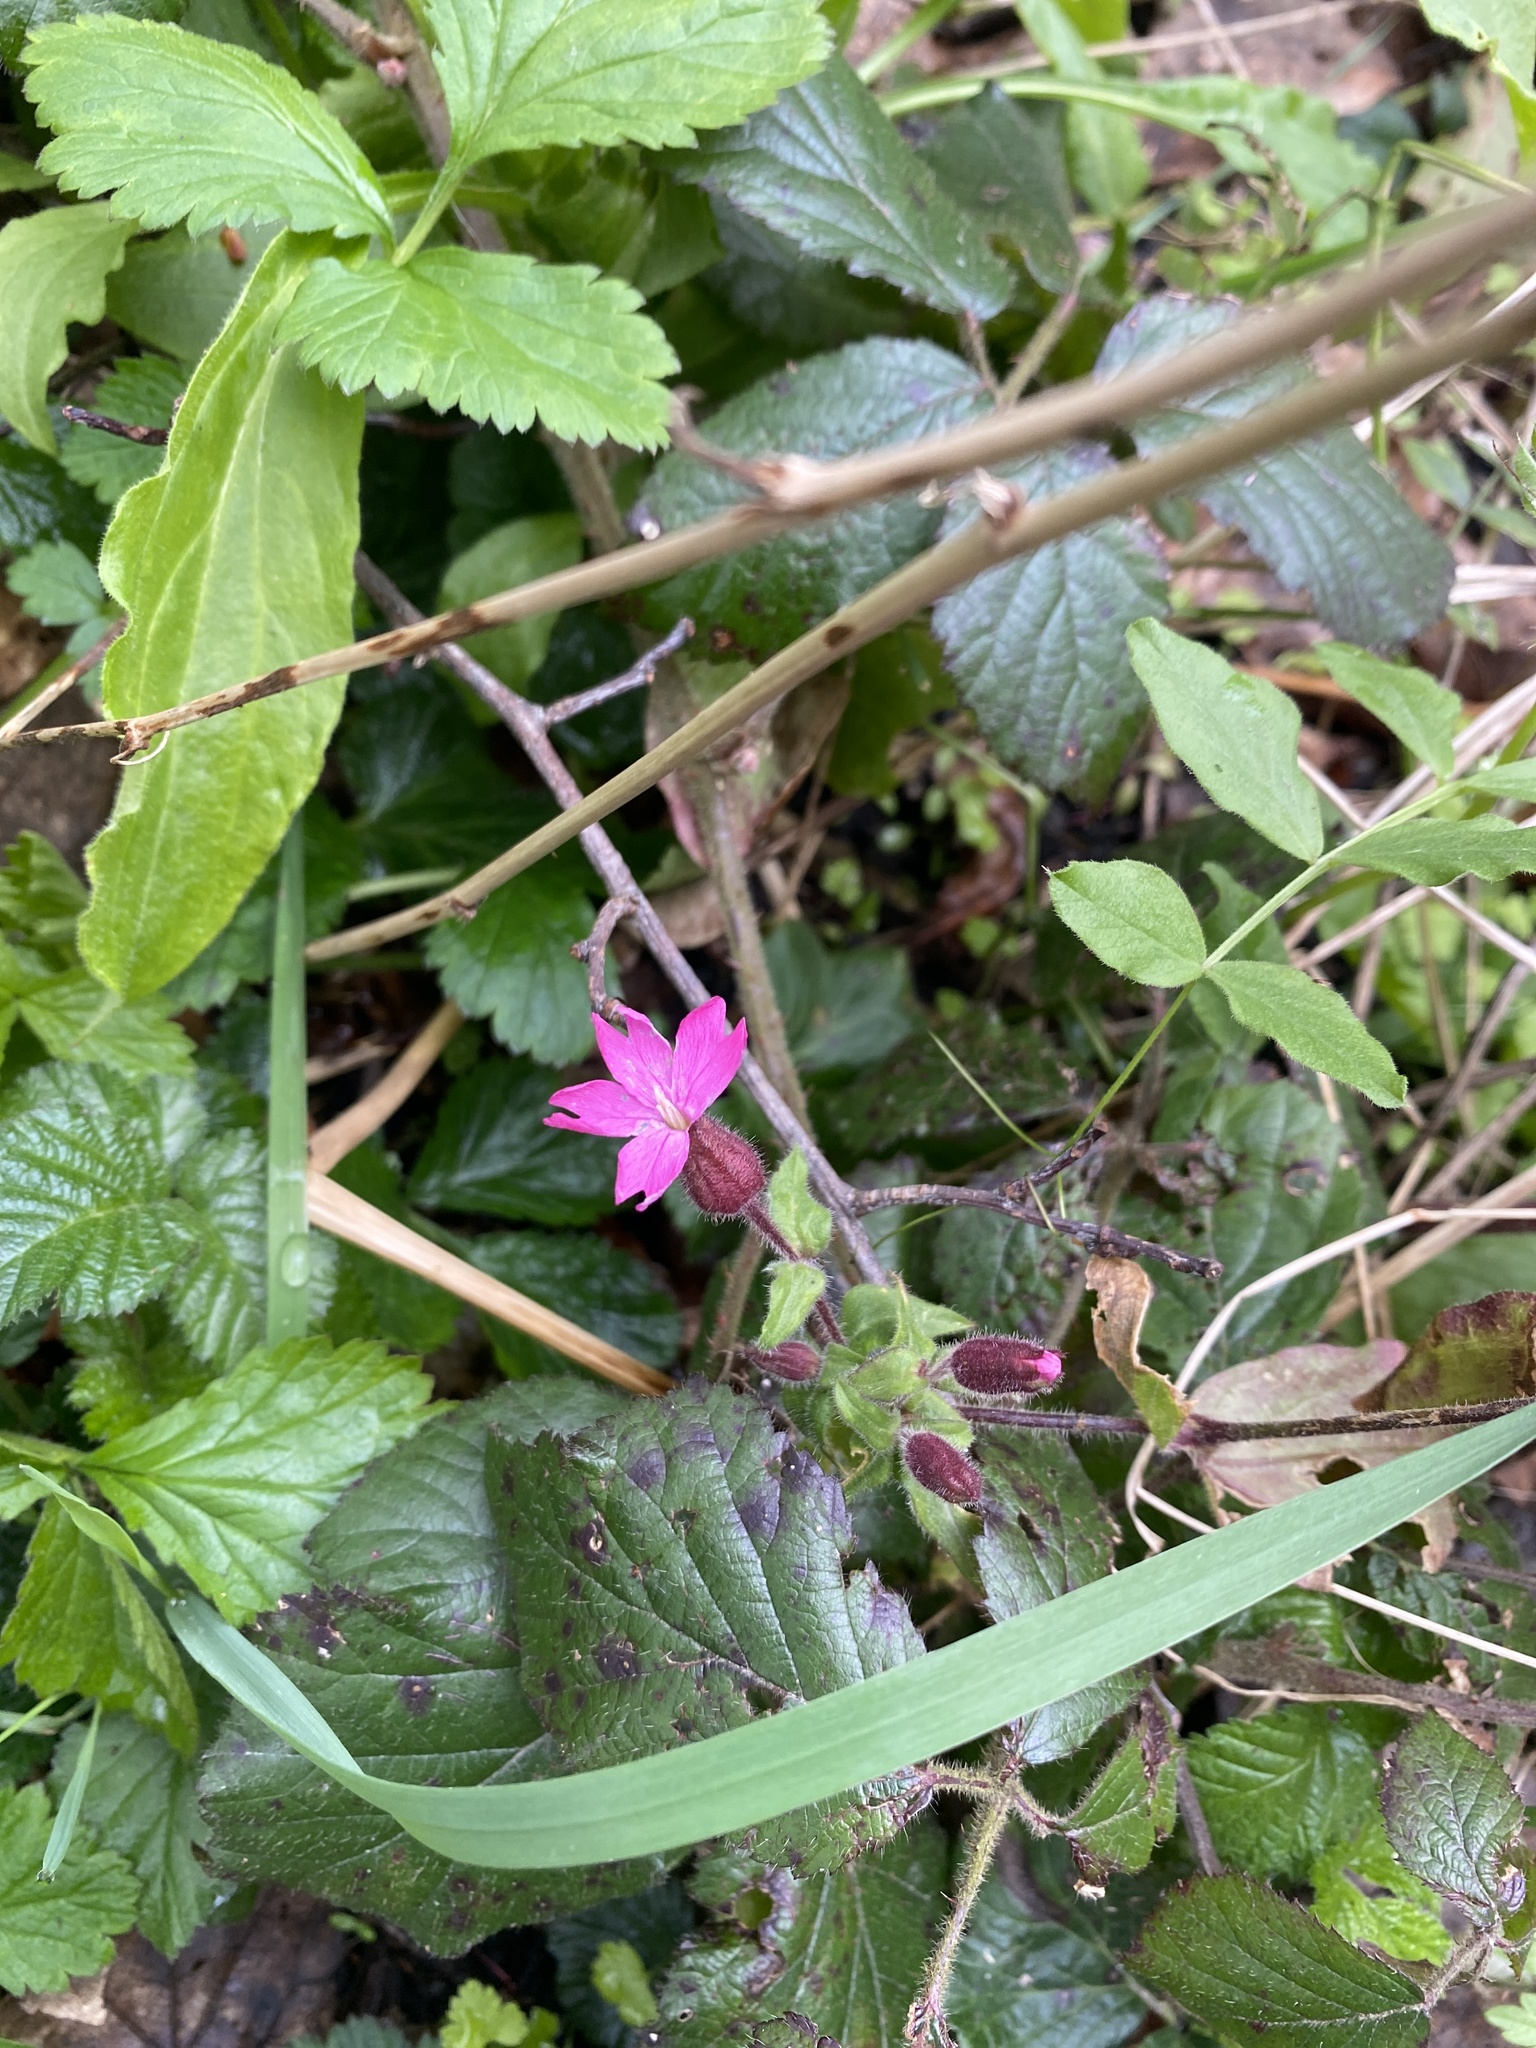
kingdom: Plantae
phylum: Tracheophyta
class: Magnoliopsida
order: Caryophyllales
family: Caryophyllaceae
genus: Silene
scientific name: Silene dioica
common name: Red campion
